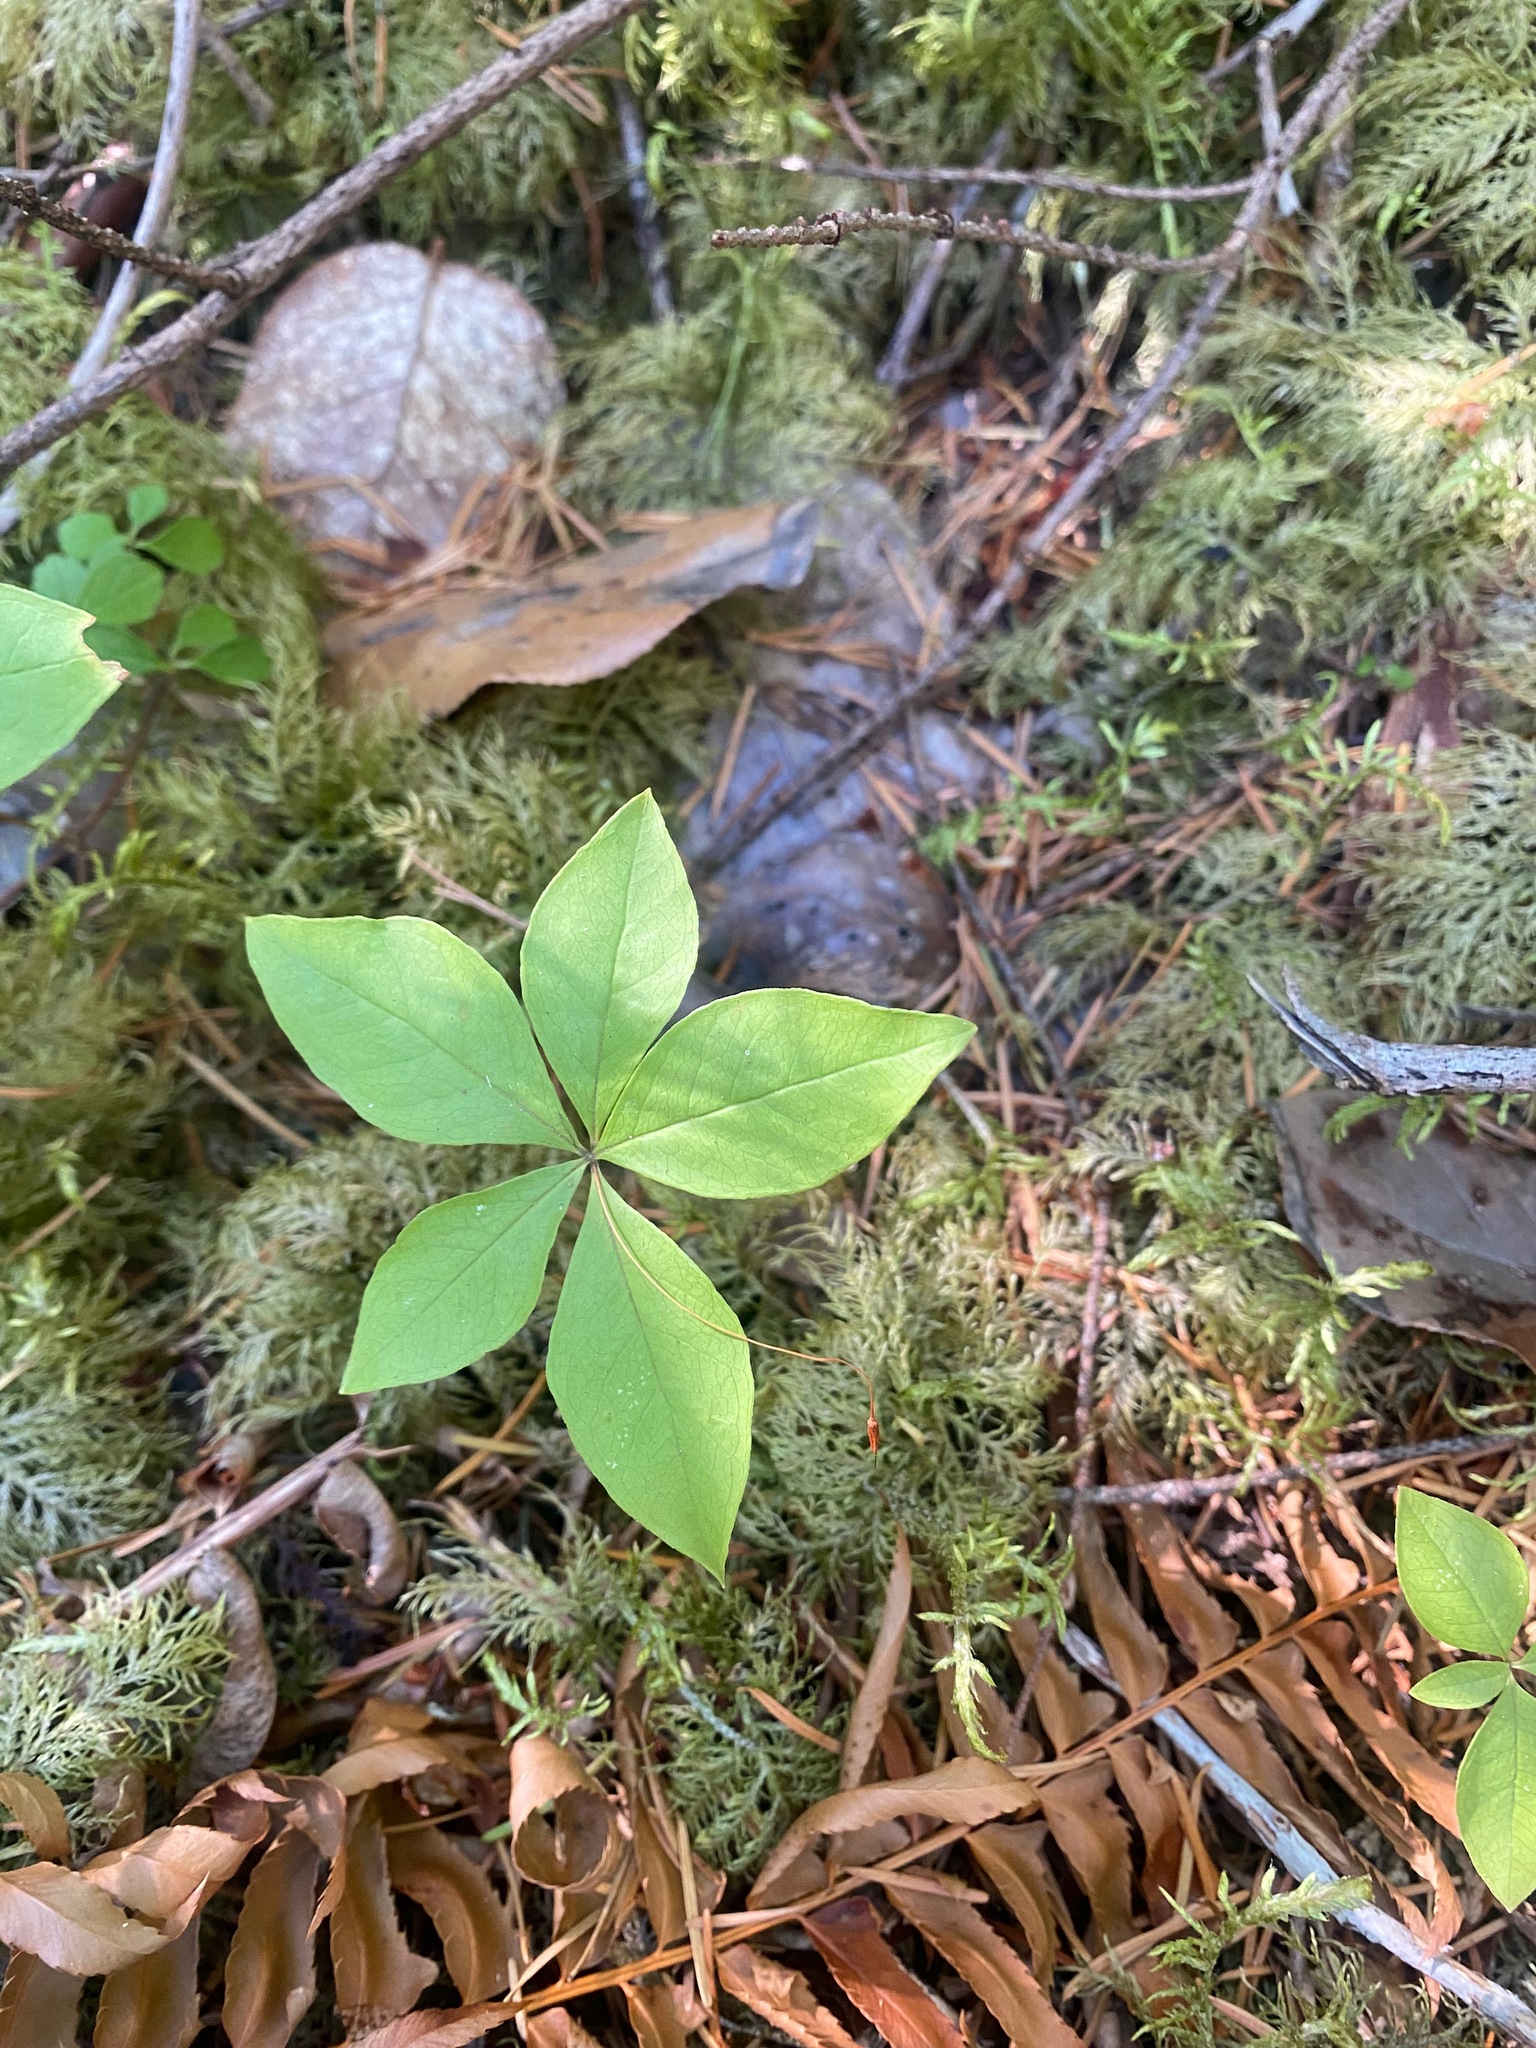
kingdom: Plantae
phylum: Tracheophyta
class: Magnoliopsida
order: Ericales
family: Primulaceae
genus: Lysimachia
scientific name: Lysimachia latifolia
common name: Pacific starflower
